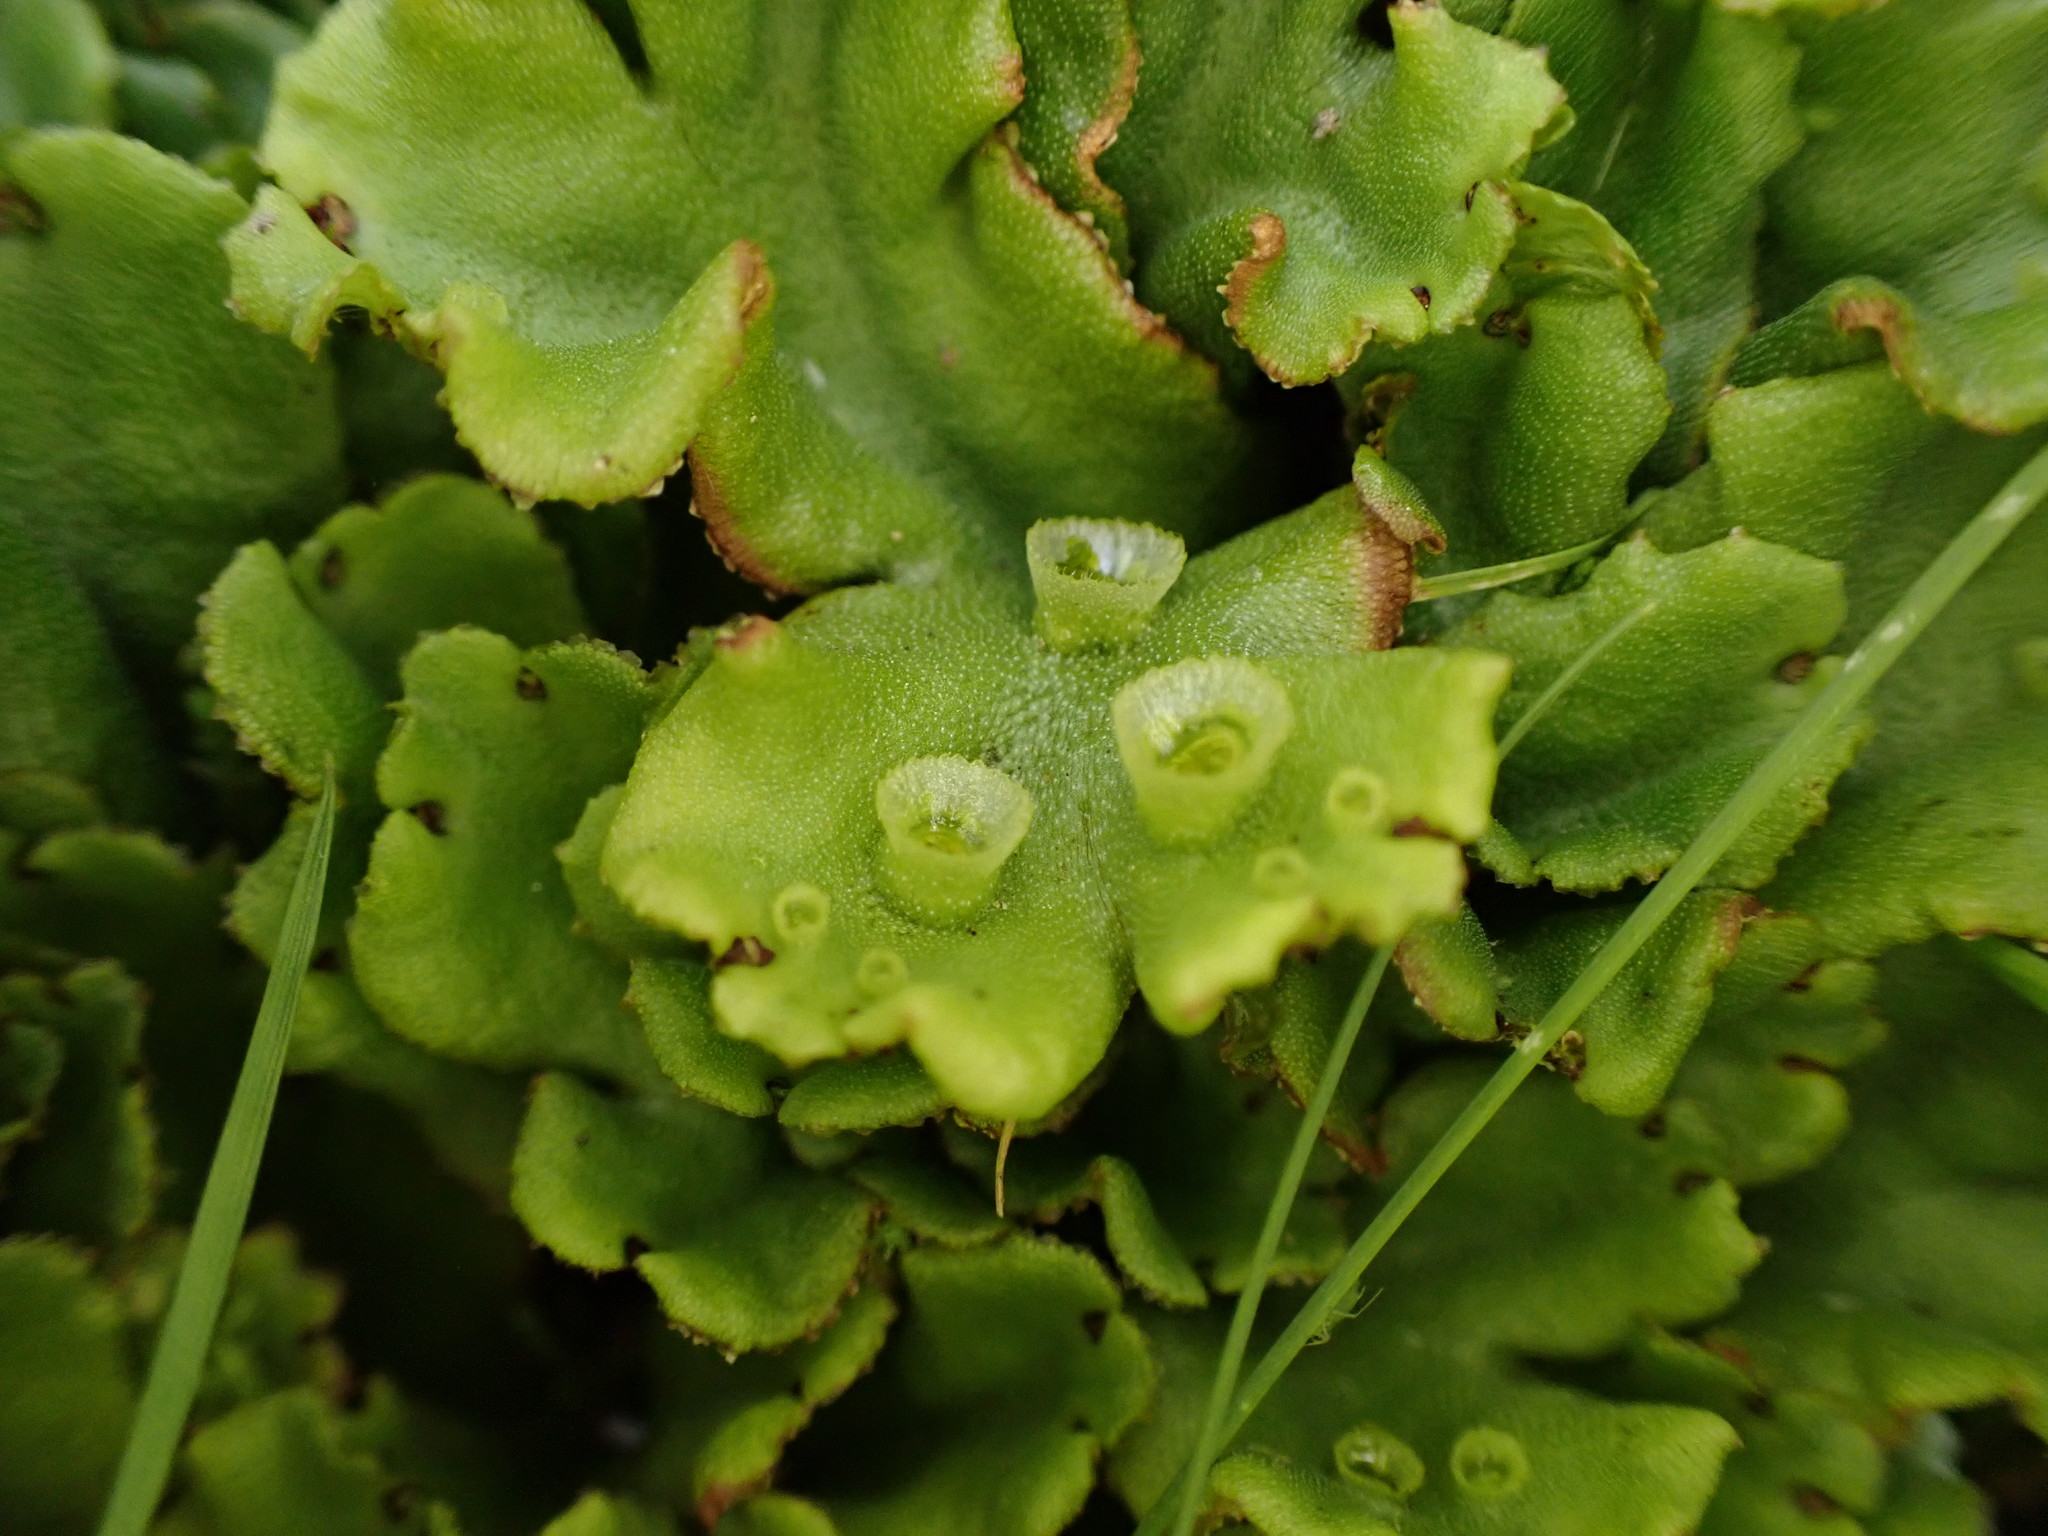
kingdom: Plantae
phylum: Marchantiophyta
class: Marchantiopsida
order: Marchantiales
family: Marchantiaceae
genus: Marchantia
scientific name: Marchantia polymorpha
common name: Common liverwort
